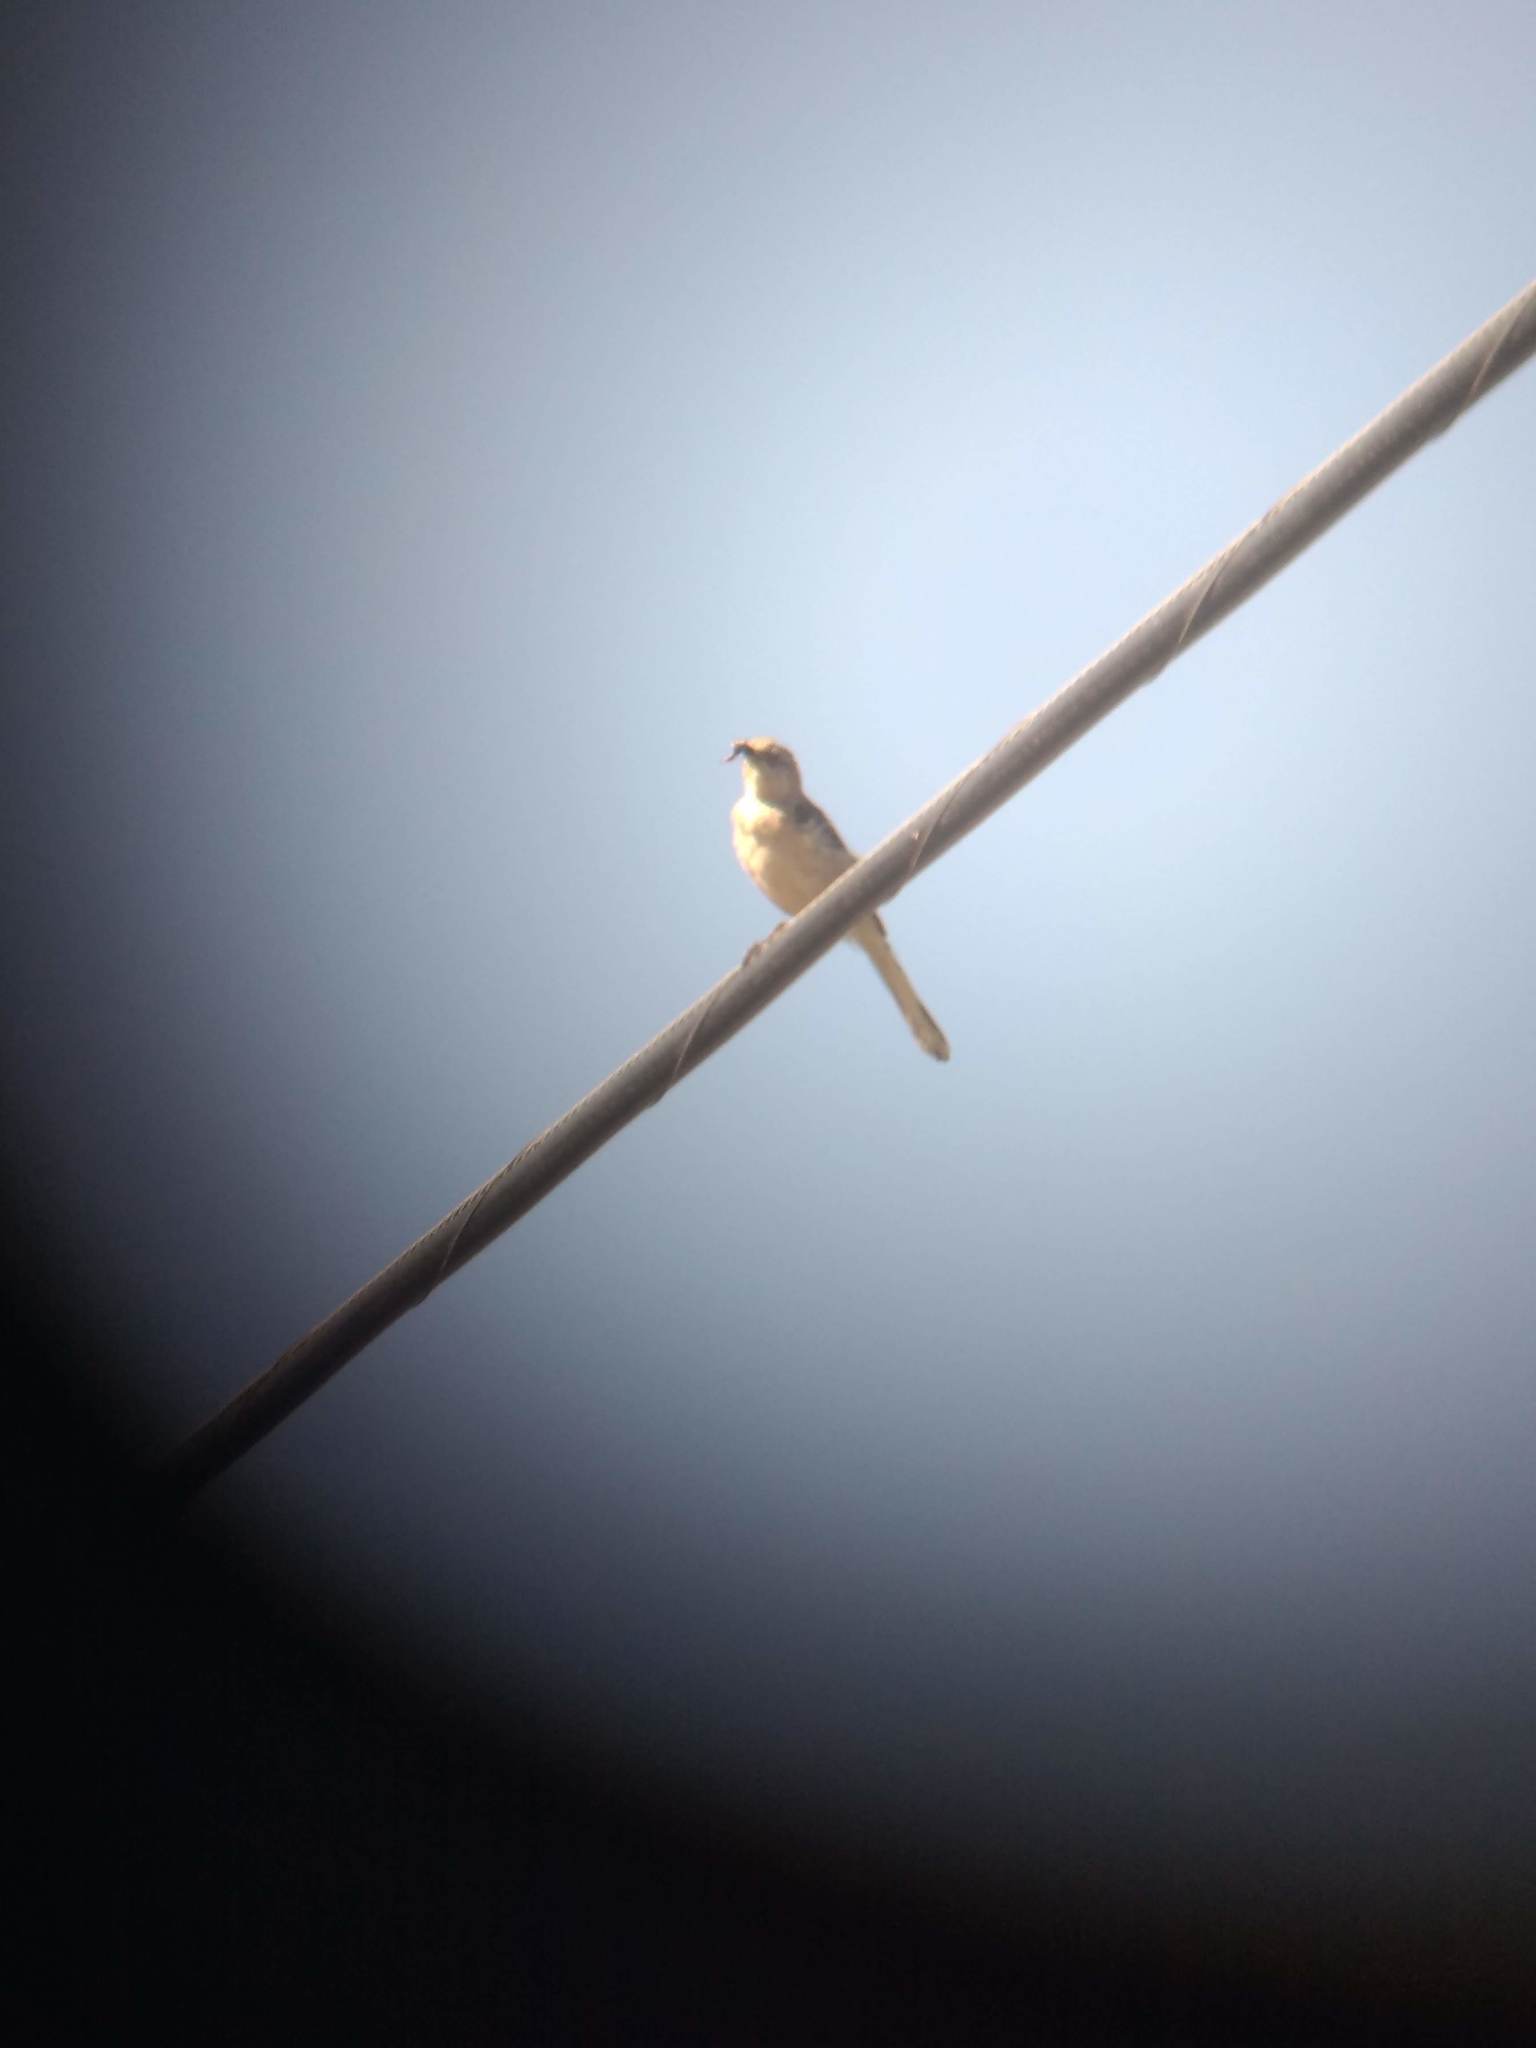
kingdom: Animalia
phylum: Chordata
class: Aves
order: Passeriformes
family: Mimidae
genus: Mimus
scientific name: Mimus polyglottos
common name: Northern mockingbird
